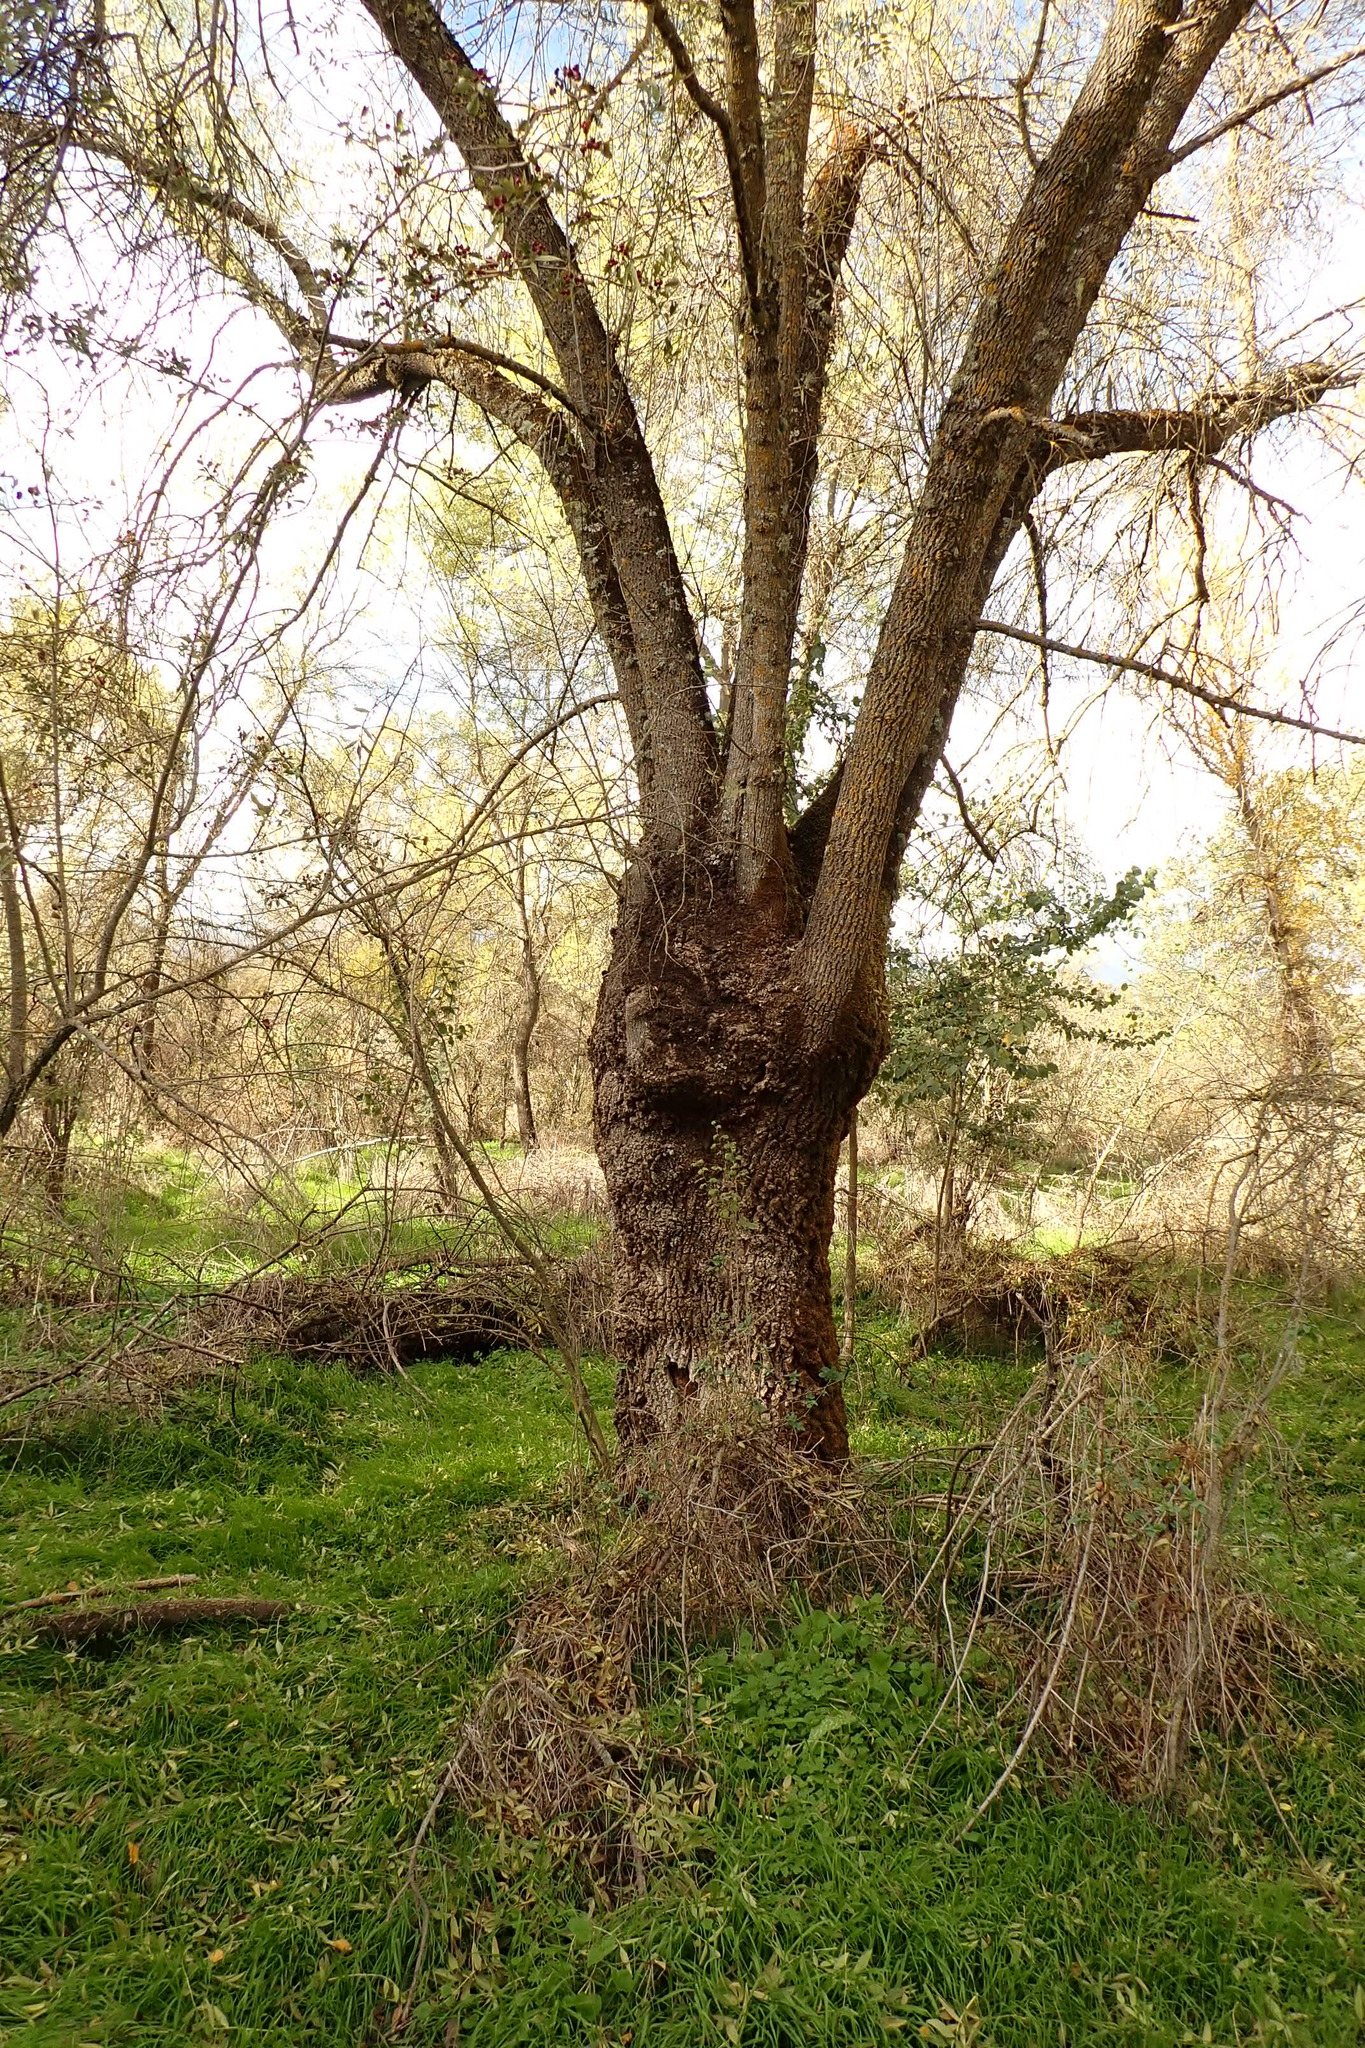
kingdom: Plantae
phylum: Tracheophyta
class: Magnoliopsida
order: Lamiales
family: Oleaceae
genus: Fraxinus
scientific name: Fraxinus angustifolia
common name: Narrow-leafed ash
